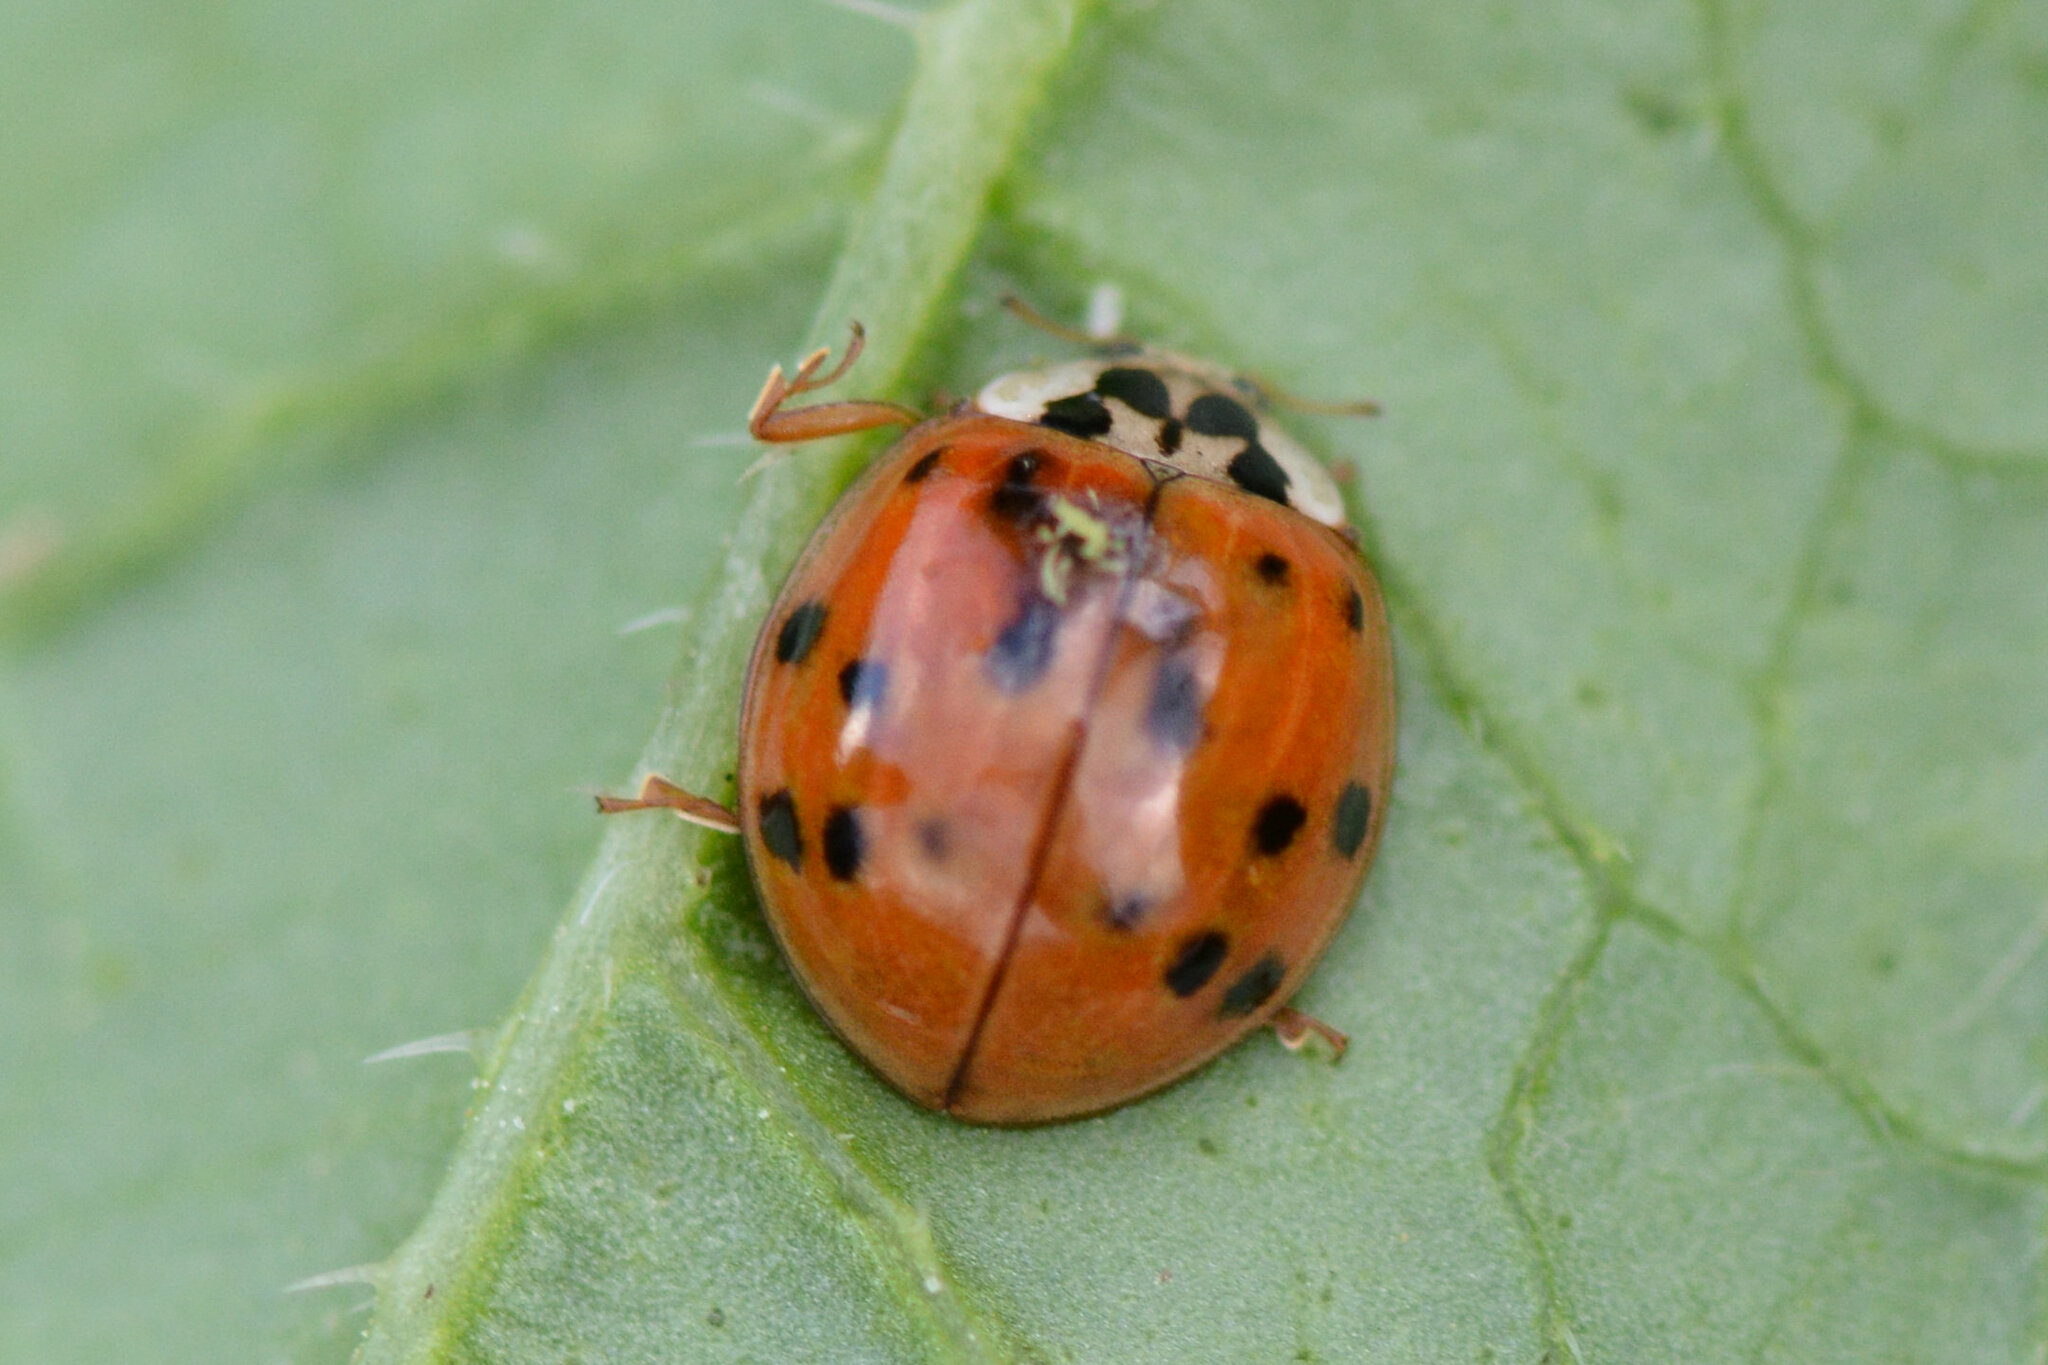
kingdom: Animalia
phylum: Arthropoda
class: Insecta
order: Coleoptera
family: Coccinellidae
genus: Harmonia
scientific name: Harmonia axyridis
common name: Harlequin ladybird
